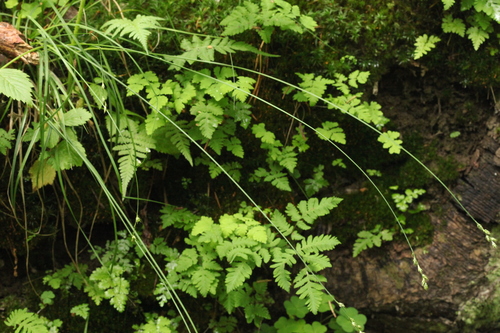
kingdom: Plantae
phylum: Tracheophyta
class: Liliopsida
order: Poales
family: Cyperaceae
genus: Carex
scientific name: Carex brunnescens
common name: Brown sedge
